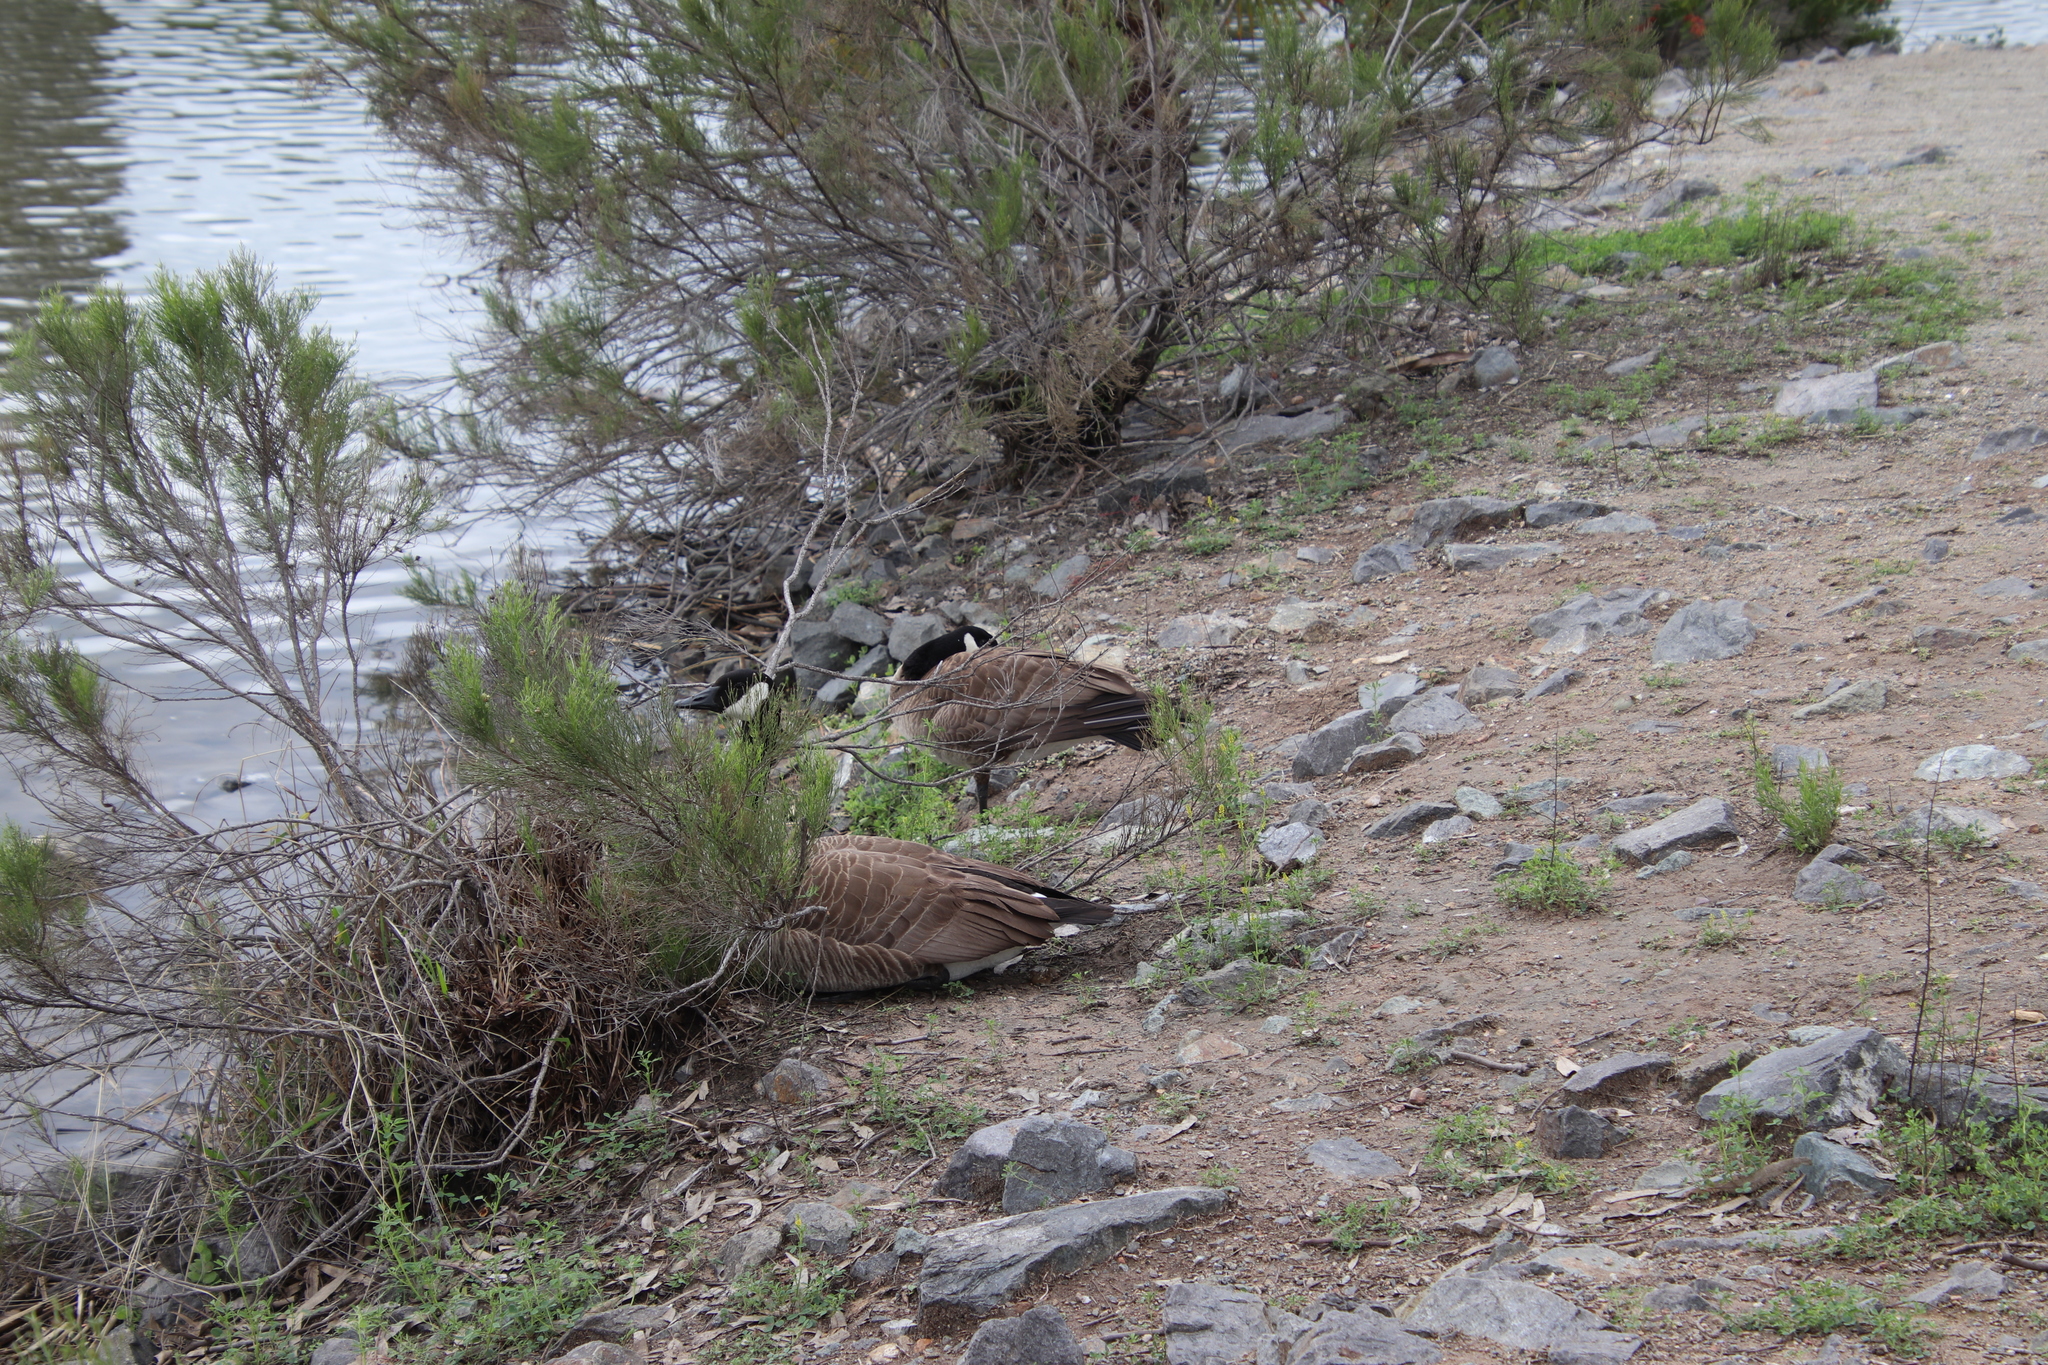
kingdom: Animalia
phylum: Chordata
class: Aves
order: Anseriformes
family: Anatidae
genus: Branta
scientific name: Branta canadensis
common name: Canada goose
